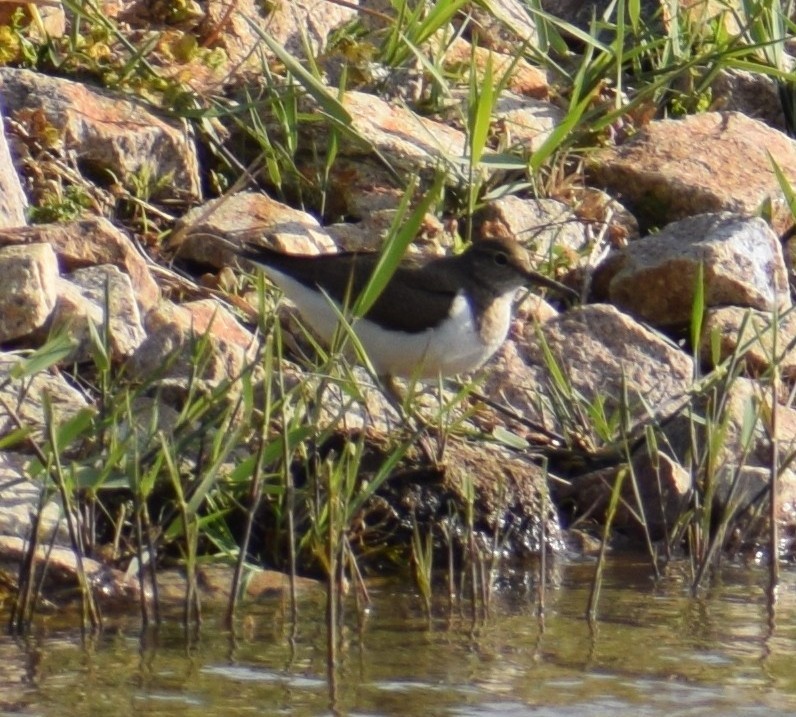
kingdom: Animalia
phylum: Chordata
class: Aves
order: Charadriiformes
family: Scolopacidae
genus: Actitis
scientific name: Actitis hypoleucos
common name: Common sandpiper
